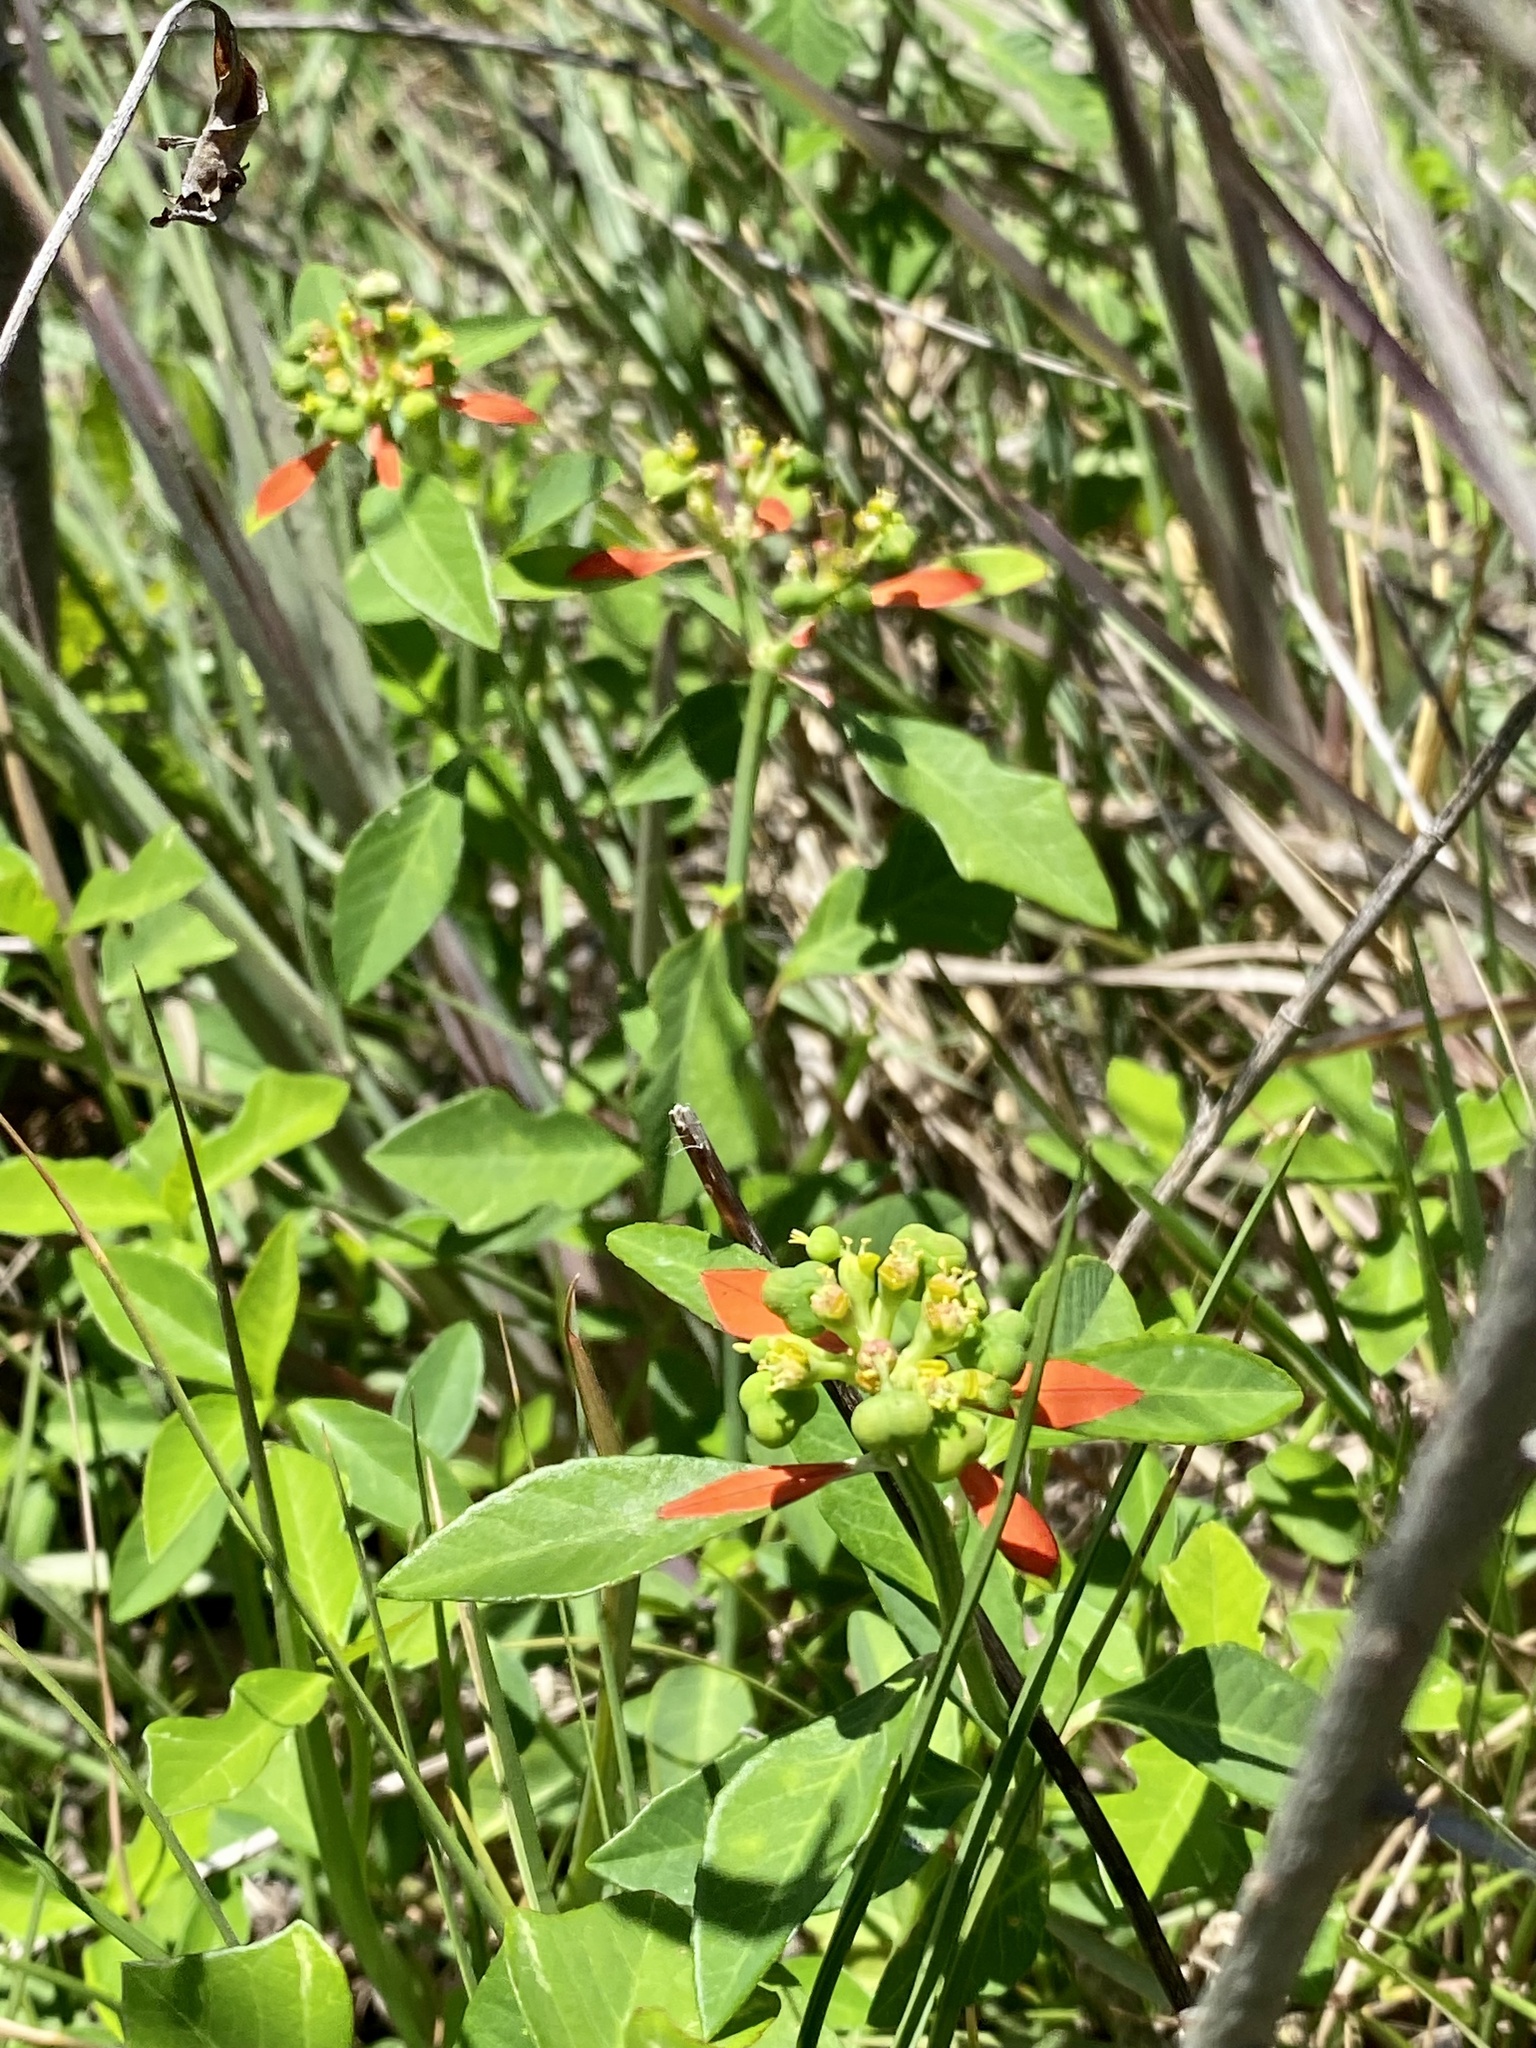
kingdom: Plantae
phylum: Tracheophyta
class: Magnoliopsida
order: Malpighiales
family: Euphorbiaceae
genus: Euphorbia
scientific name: Euphorbia heterophylla
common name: Mexican fireplant
